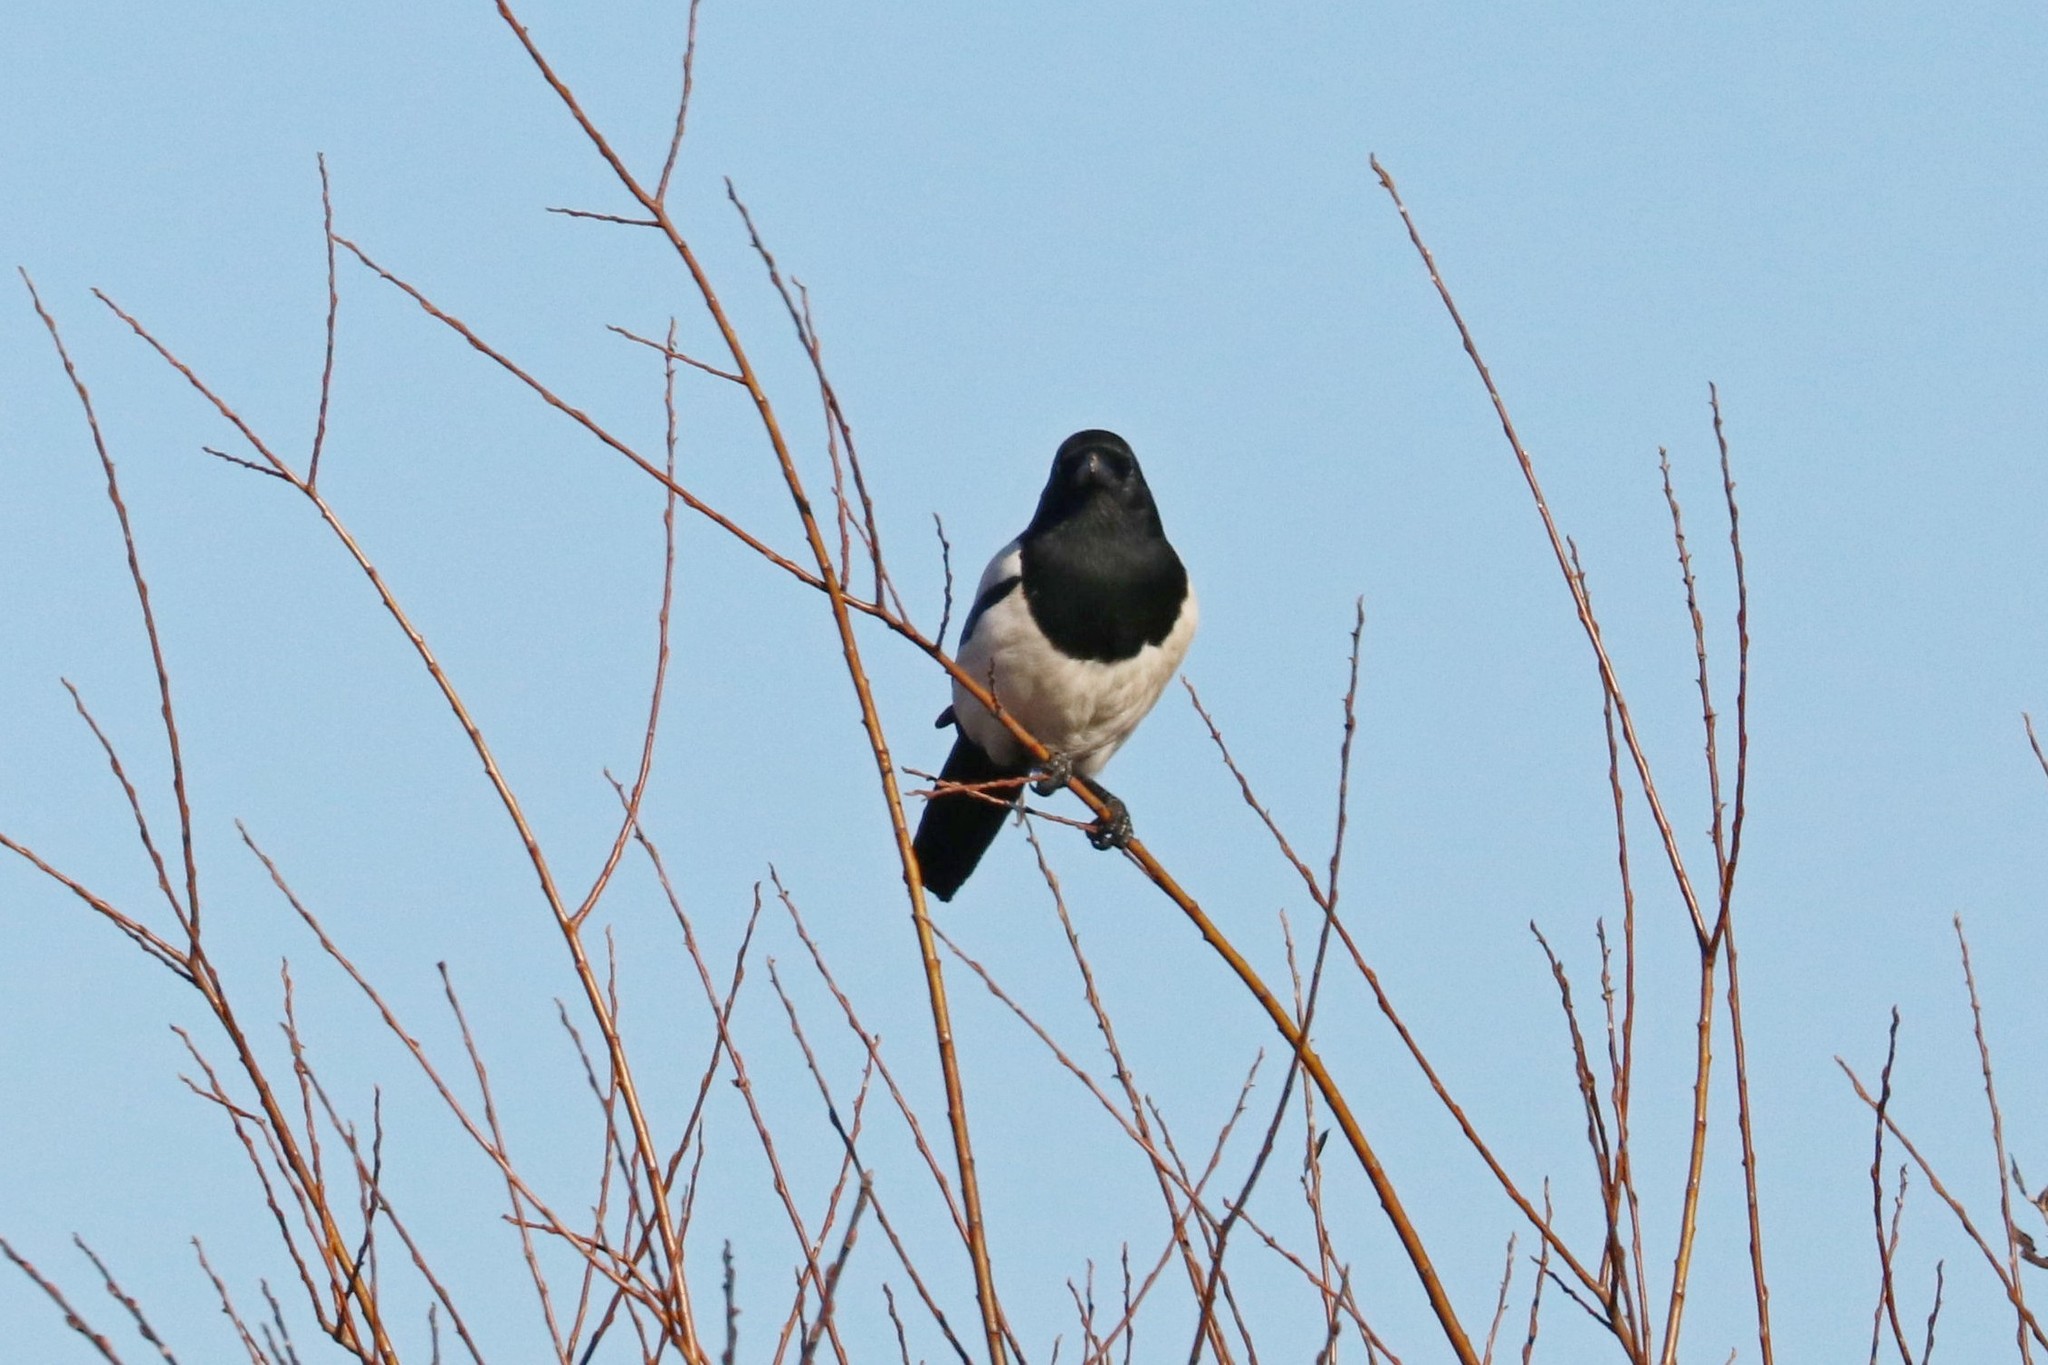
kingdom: Animalia
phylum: Chordata
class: Aves
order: Passeriformes
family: Corvidae
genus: Pica
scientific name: Pica pica
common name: Eurasian magpie
